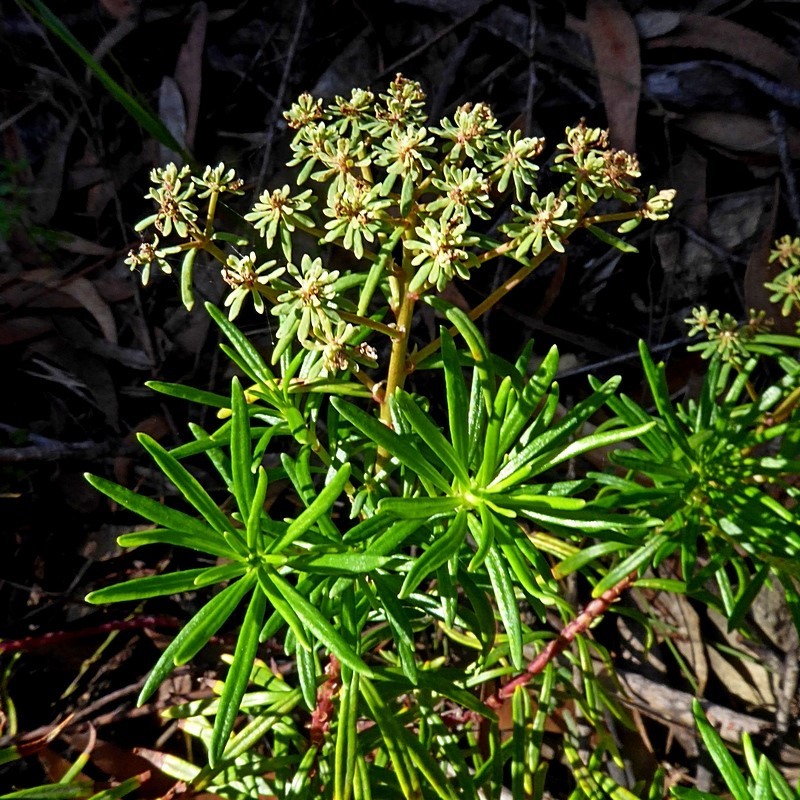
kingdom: Plantae
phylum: Tracheophyta
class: Magnoliopsida
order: Malpighiales
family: Phyllanthaceae
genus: Poranthera
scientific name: Poranthera corymbosa
